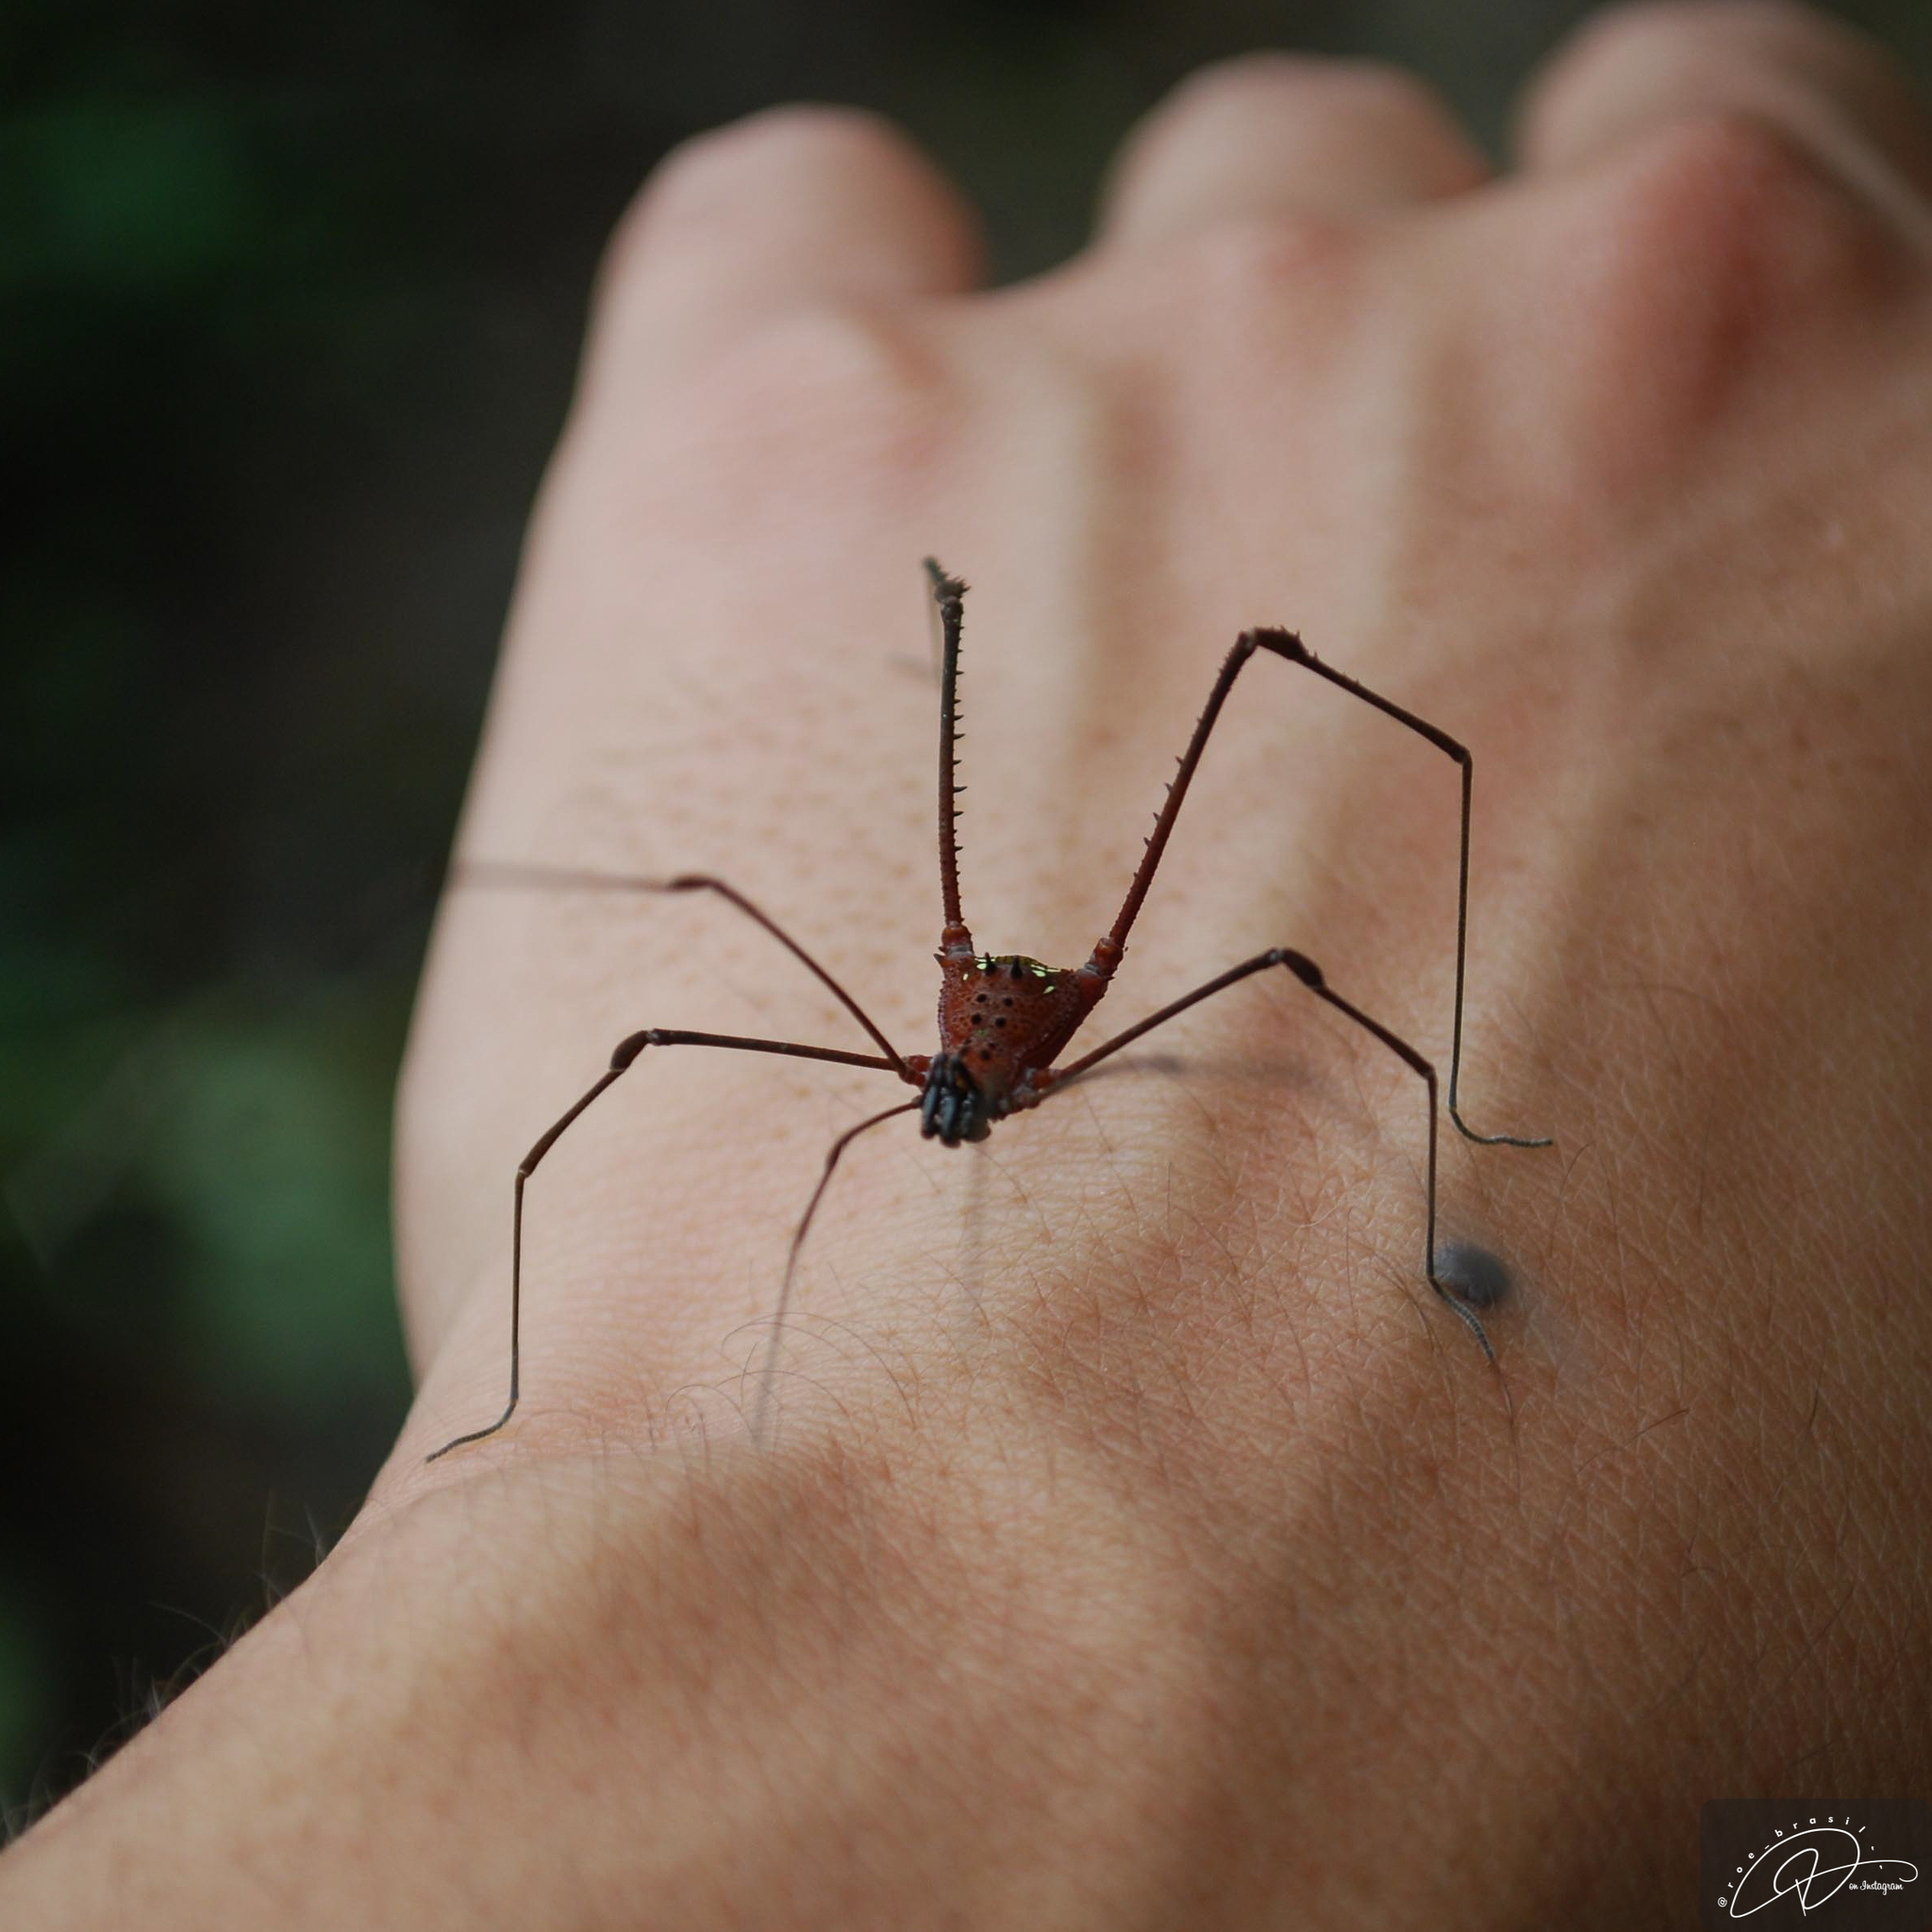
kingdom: Animalia
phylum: Arthropoda
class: Arachnida
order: Opiliones
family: Gonyleptidae
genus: Pristocnemus
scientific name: Pristocnemus farinosus
